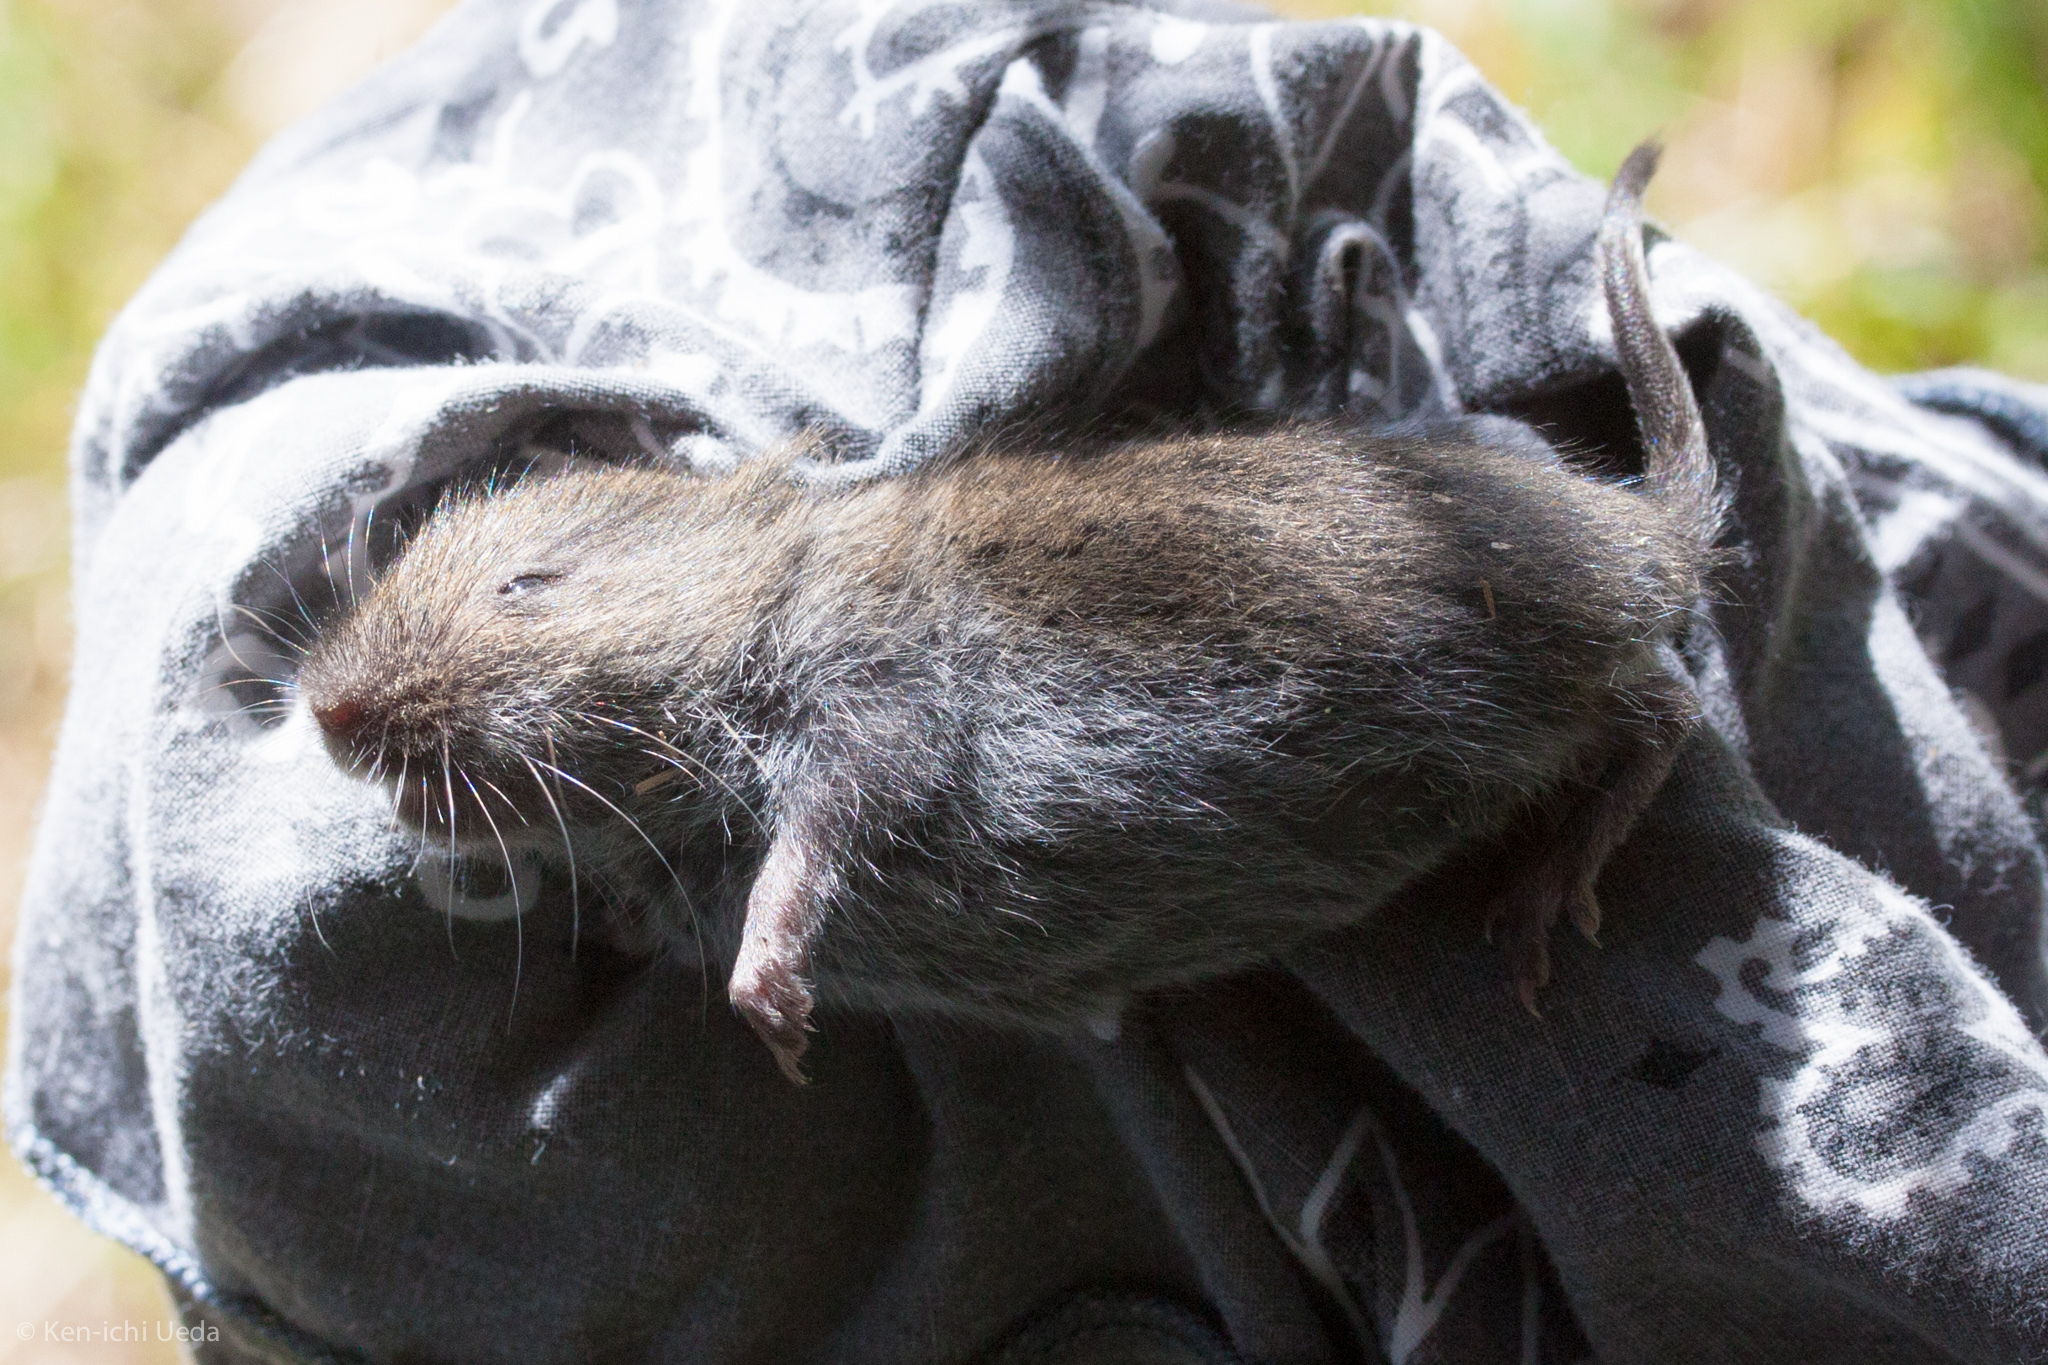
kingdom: Animalia
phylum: Chordata
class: Mammalia
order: Rodentia
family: Cricetidae
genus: Microtus
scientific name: Microtus montanus
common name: Montane vole
